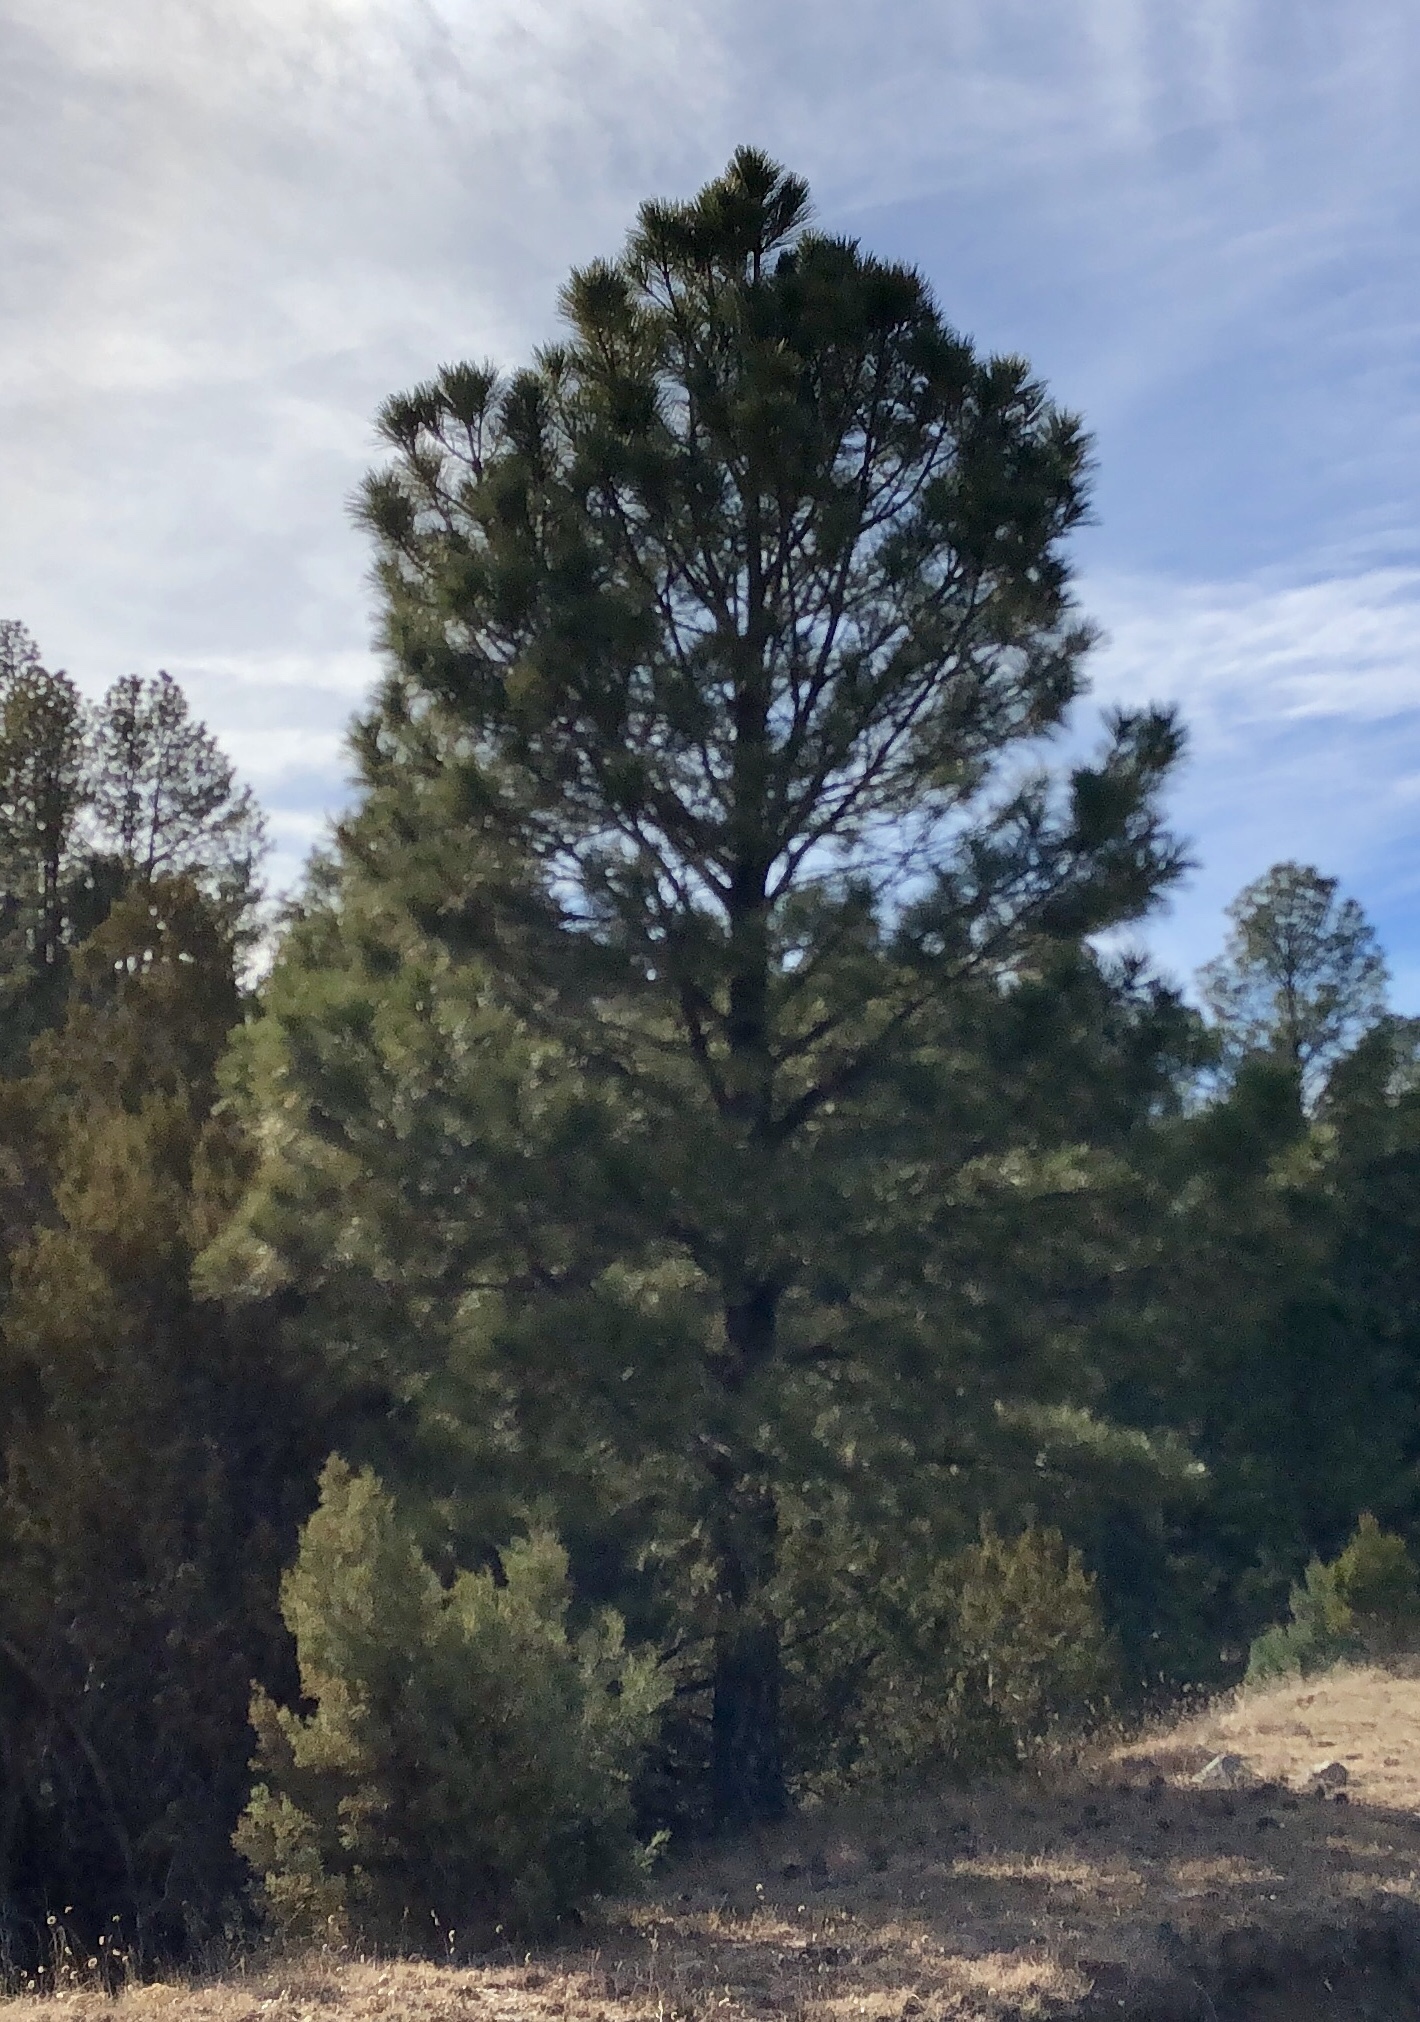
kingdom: Plantae
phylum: Tracheophyta
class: Pinopsida
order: Pinales
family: Pinaceae
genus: Pinus
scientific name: Pinus ponderosa
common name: Western yellow-pine
